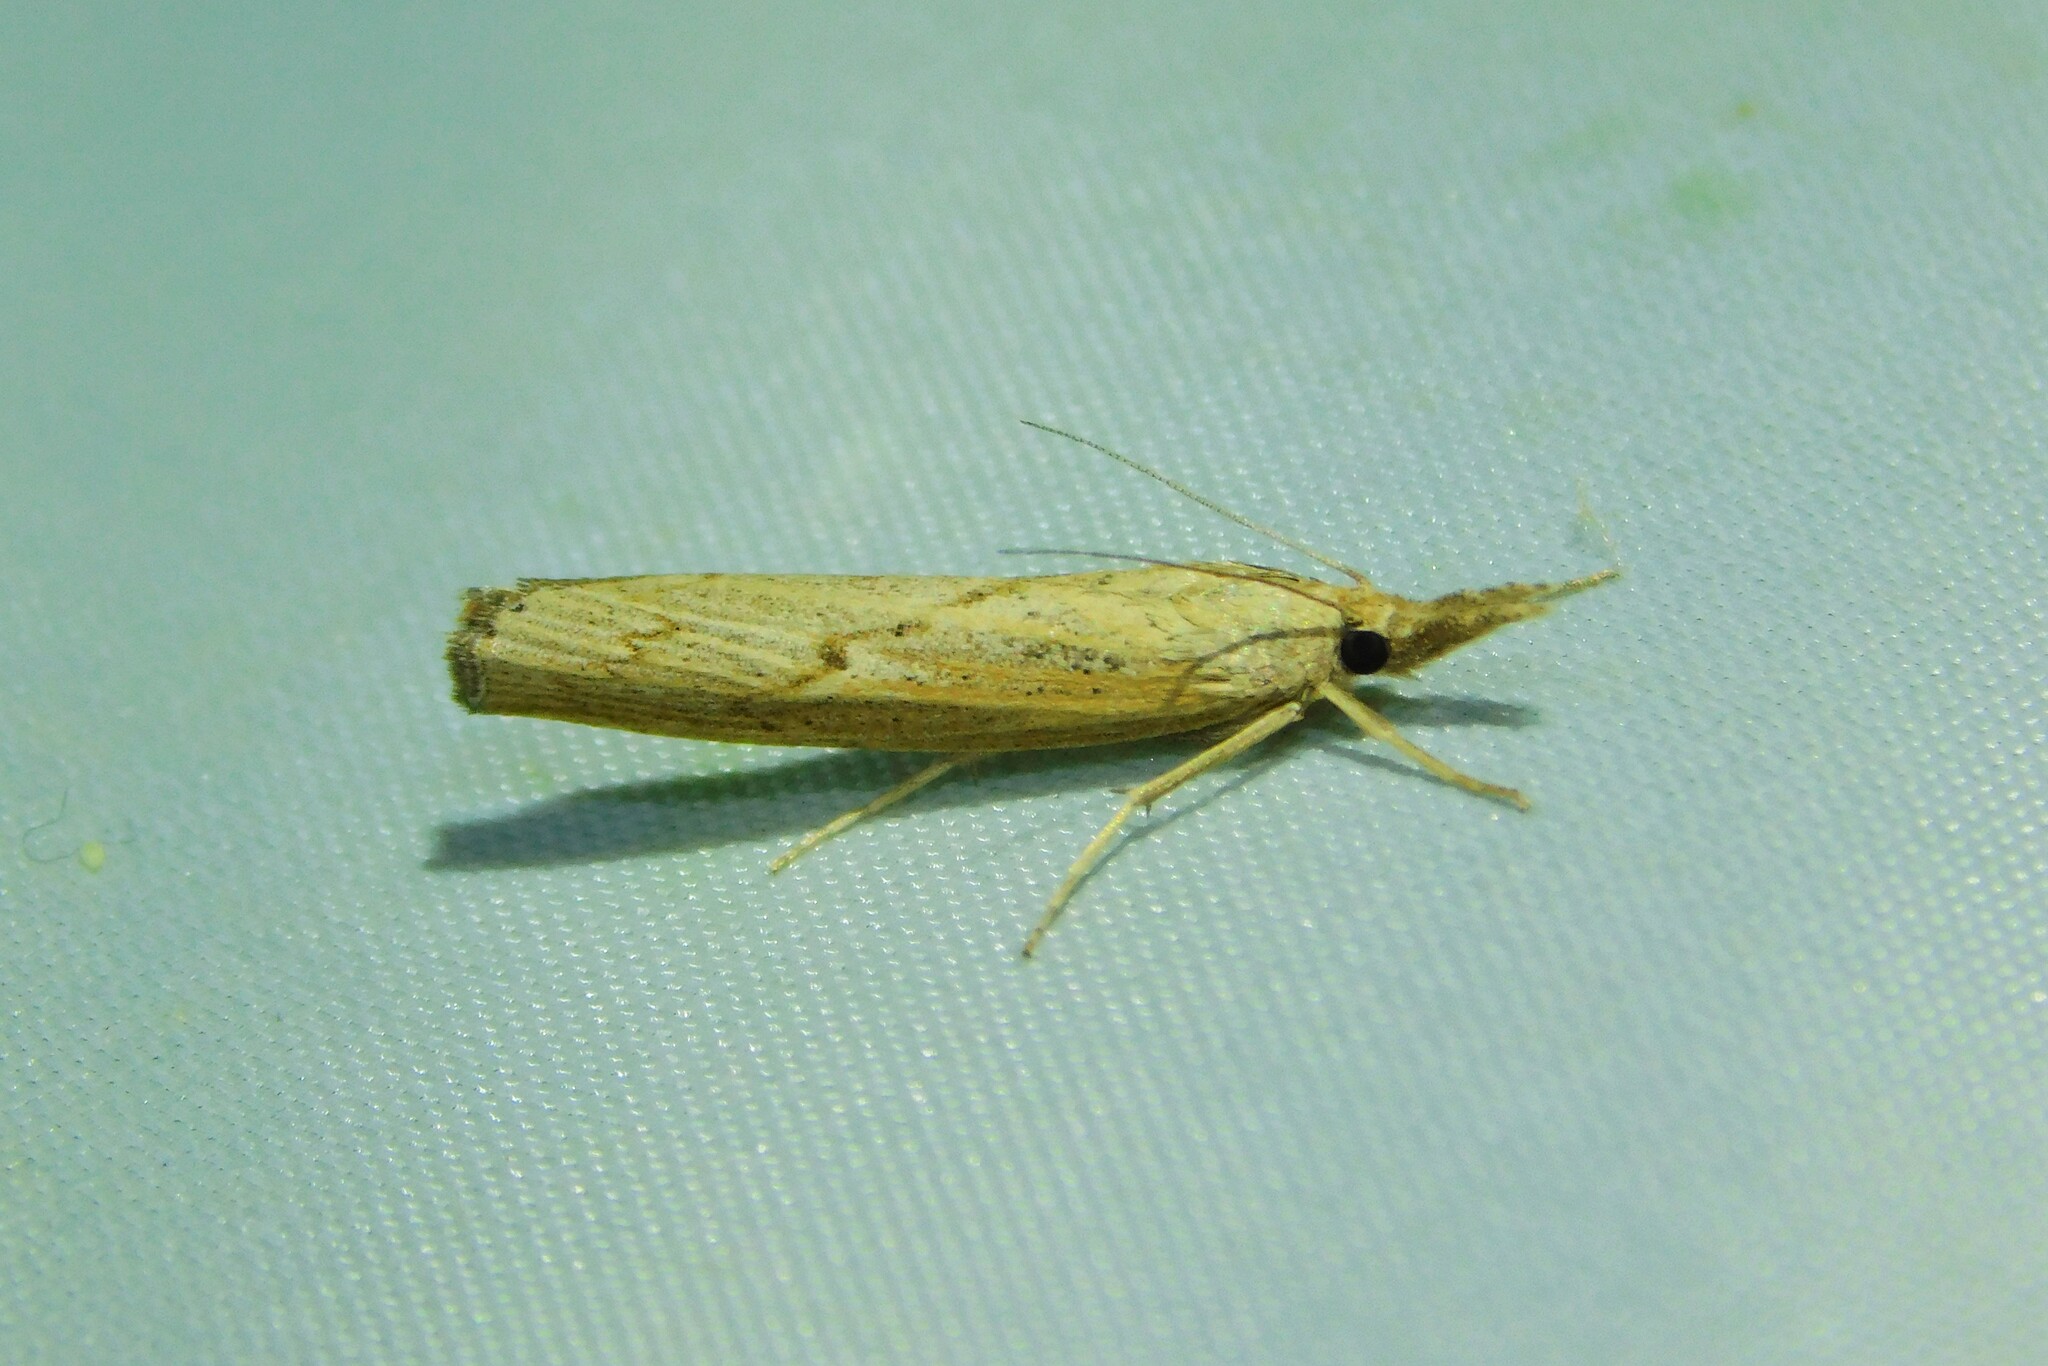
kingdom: Animalia
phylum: Arthropoda
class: Insecta
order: Lepidoptera
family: Crambidae
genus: Pediasia
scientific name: Pediasia contaminella
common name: Waste grass-veneer
